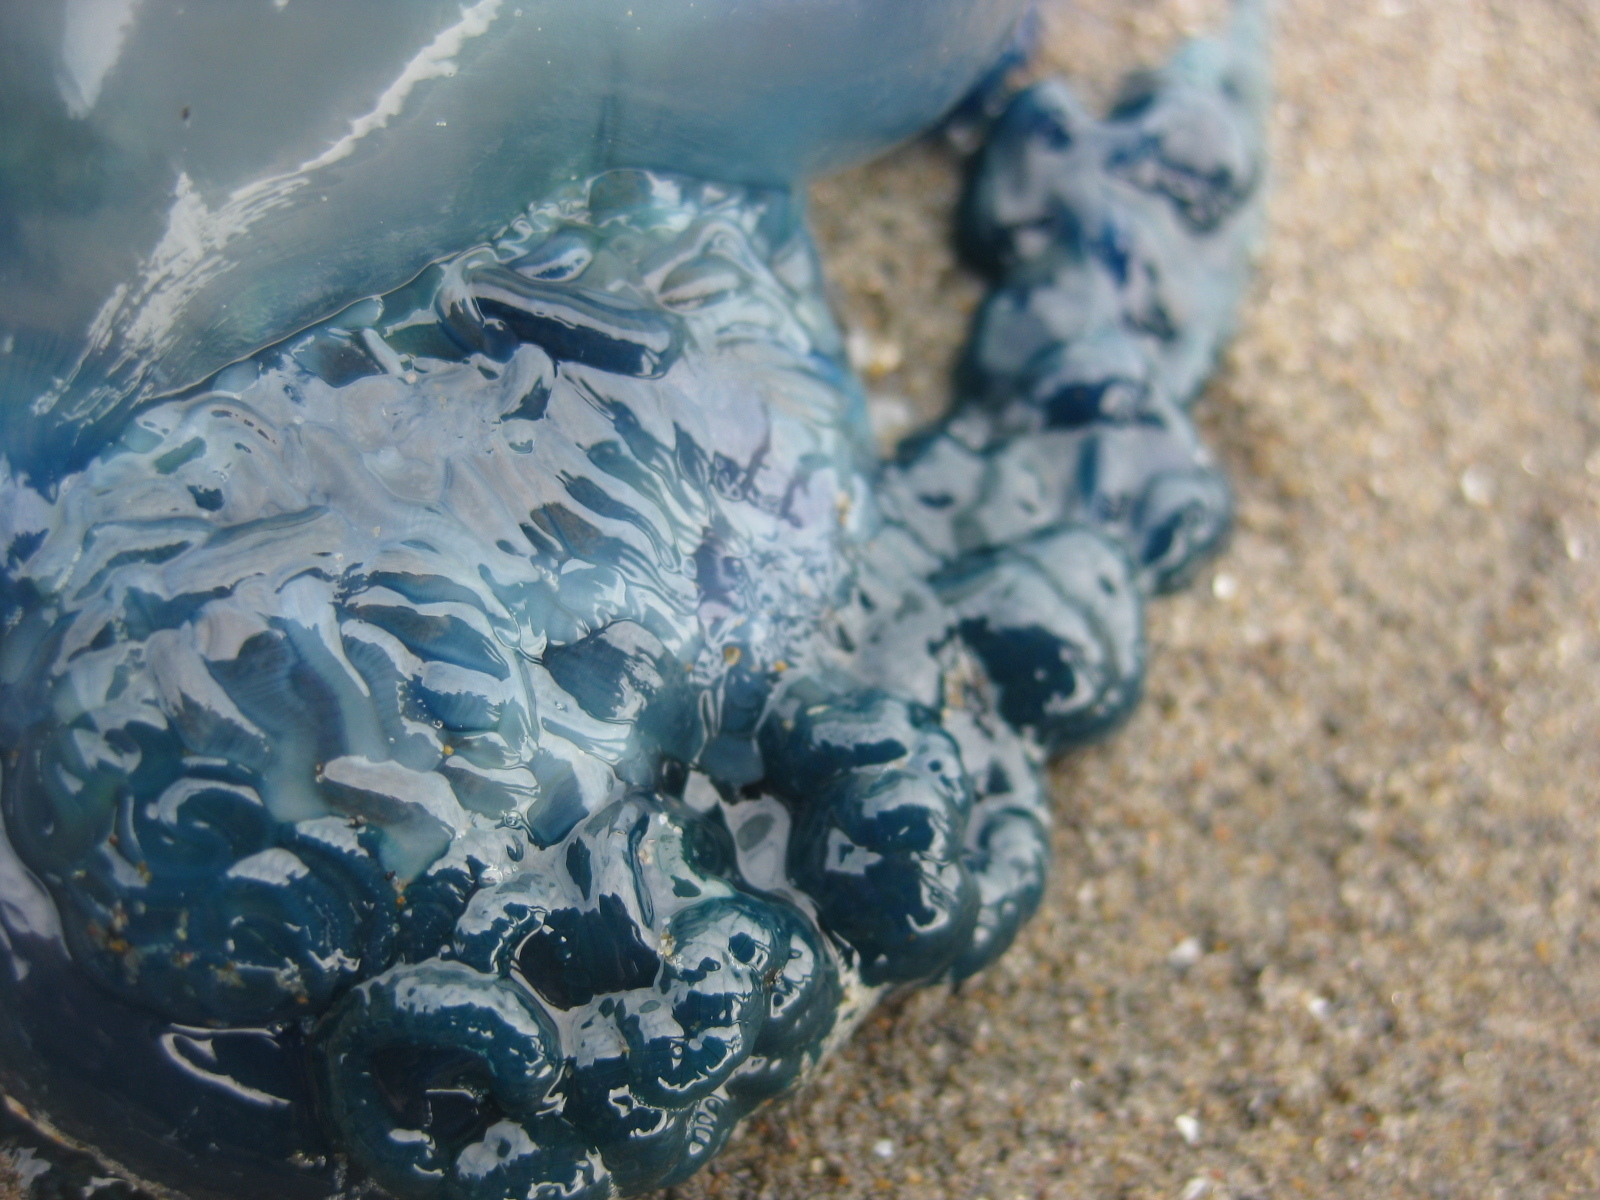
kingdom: Animalia
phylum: Cnidaria
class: Hydrozoa
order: Siphonophorae
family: Physaliidae
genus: Physalia
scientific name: Physalia physalis
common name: Portuguese man-of-war
